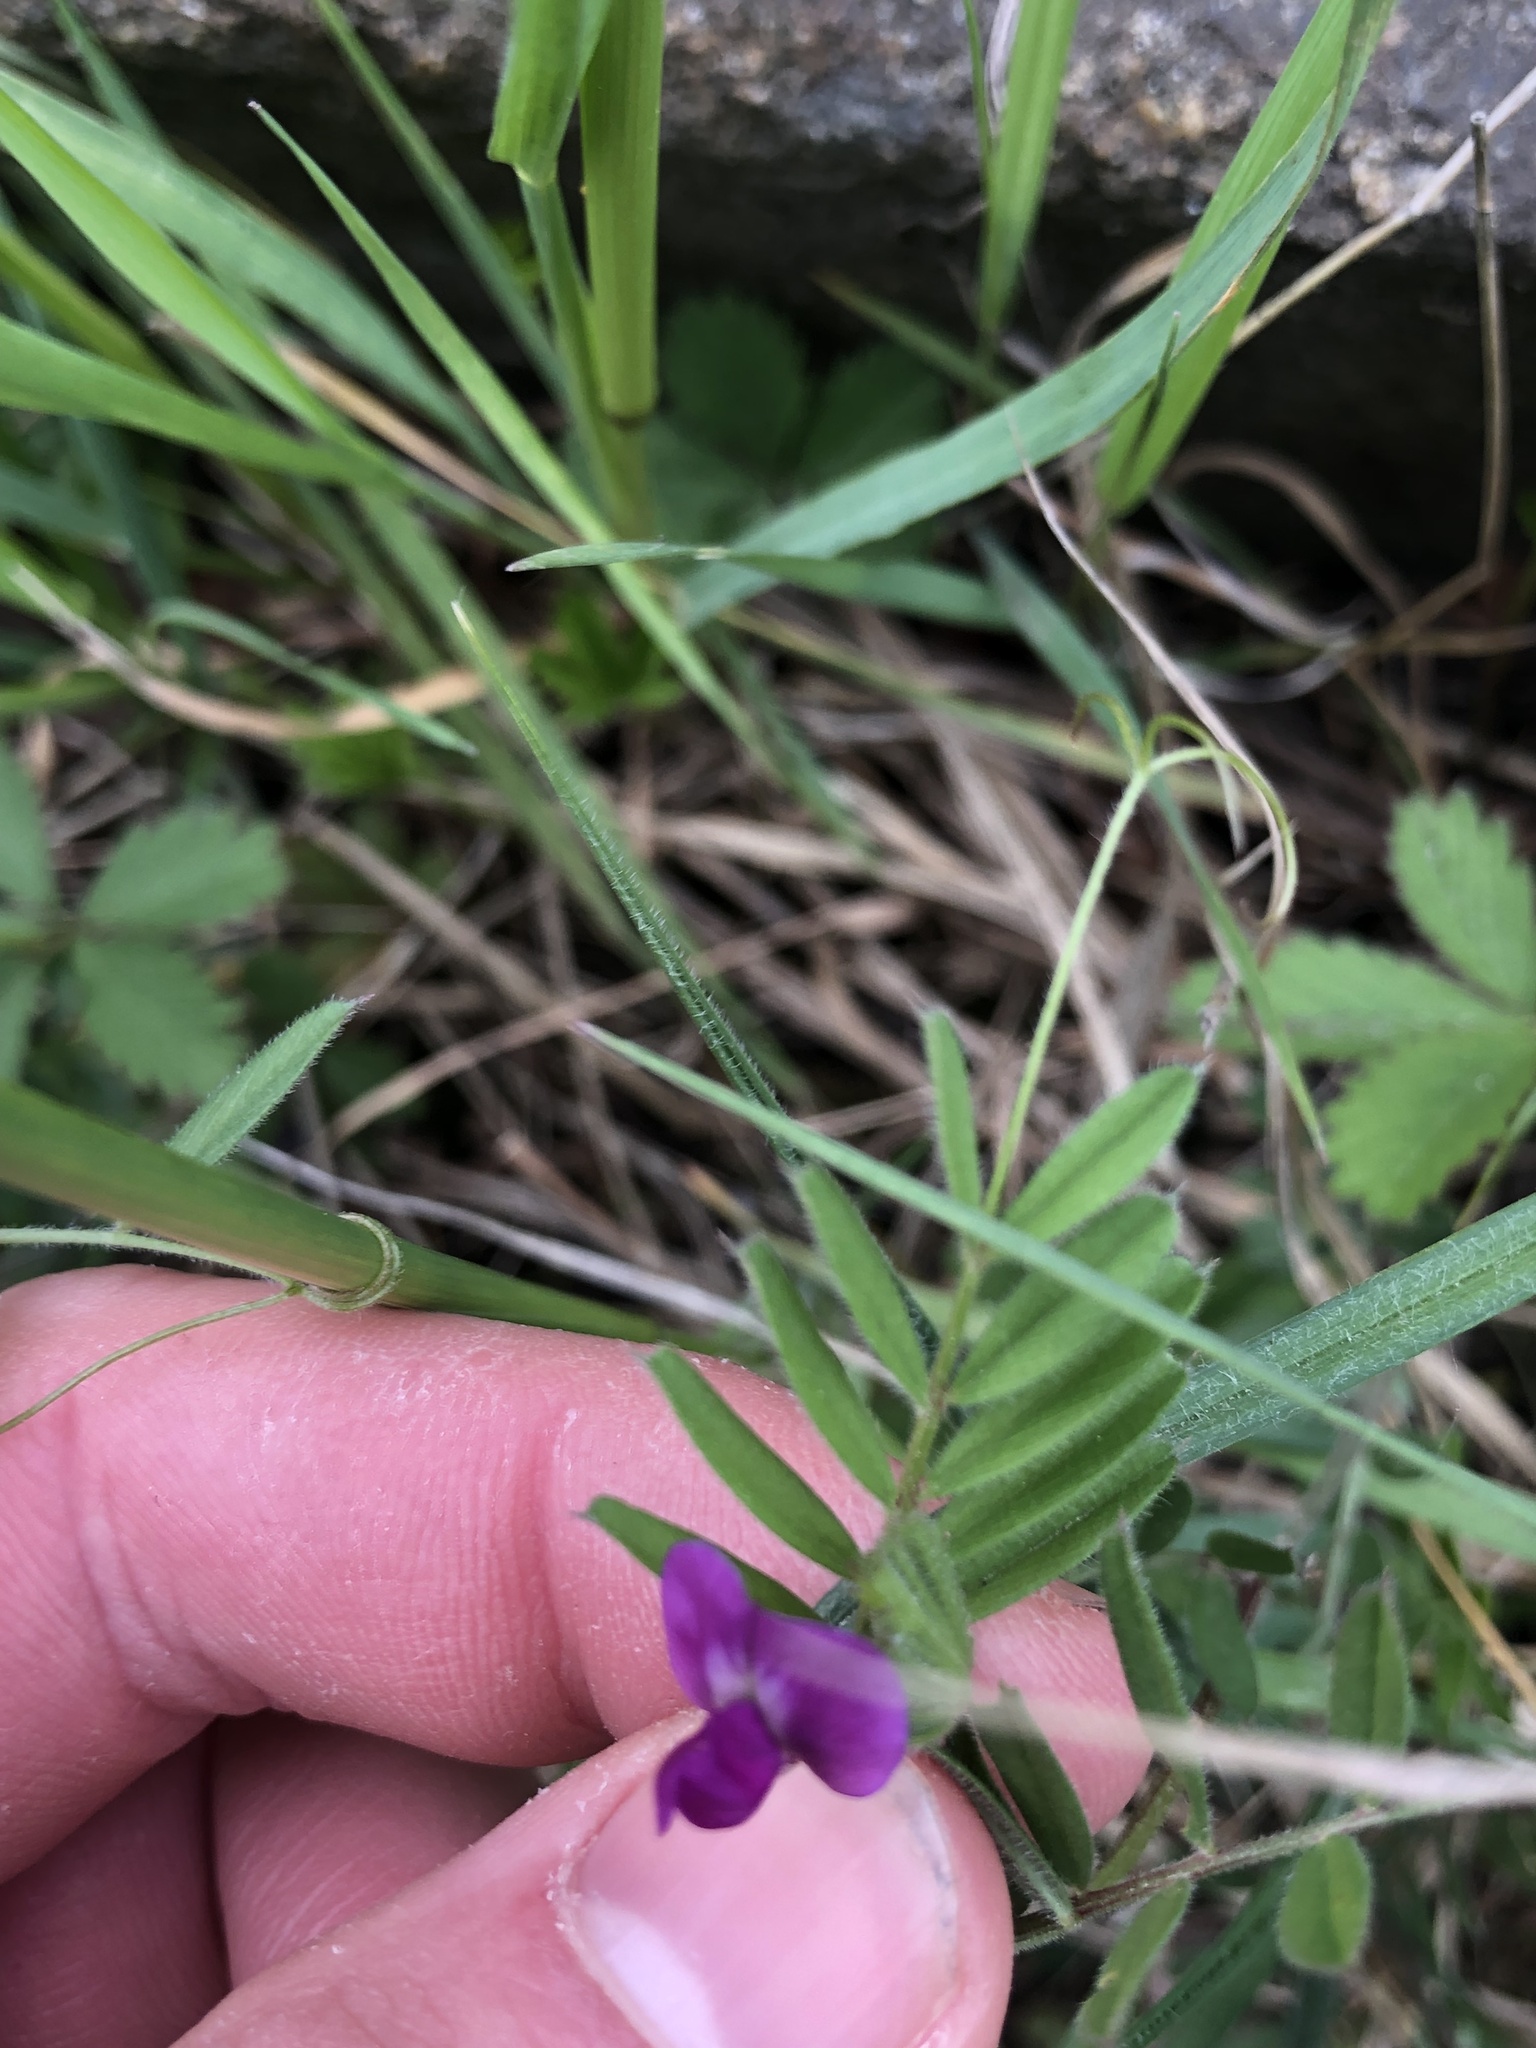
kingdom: Plantae
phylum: Tracheophyta
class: Magnoliopsida
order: Fabales
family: Fabaceae
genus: Vicia
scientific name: Vicia sativa
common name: Garden vetch
